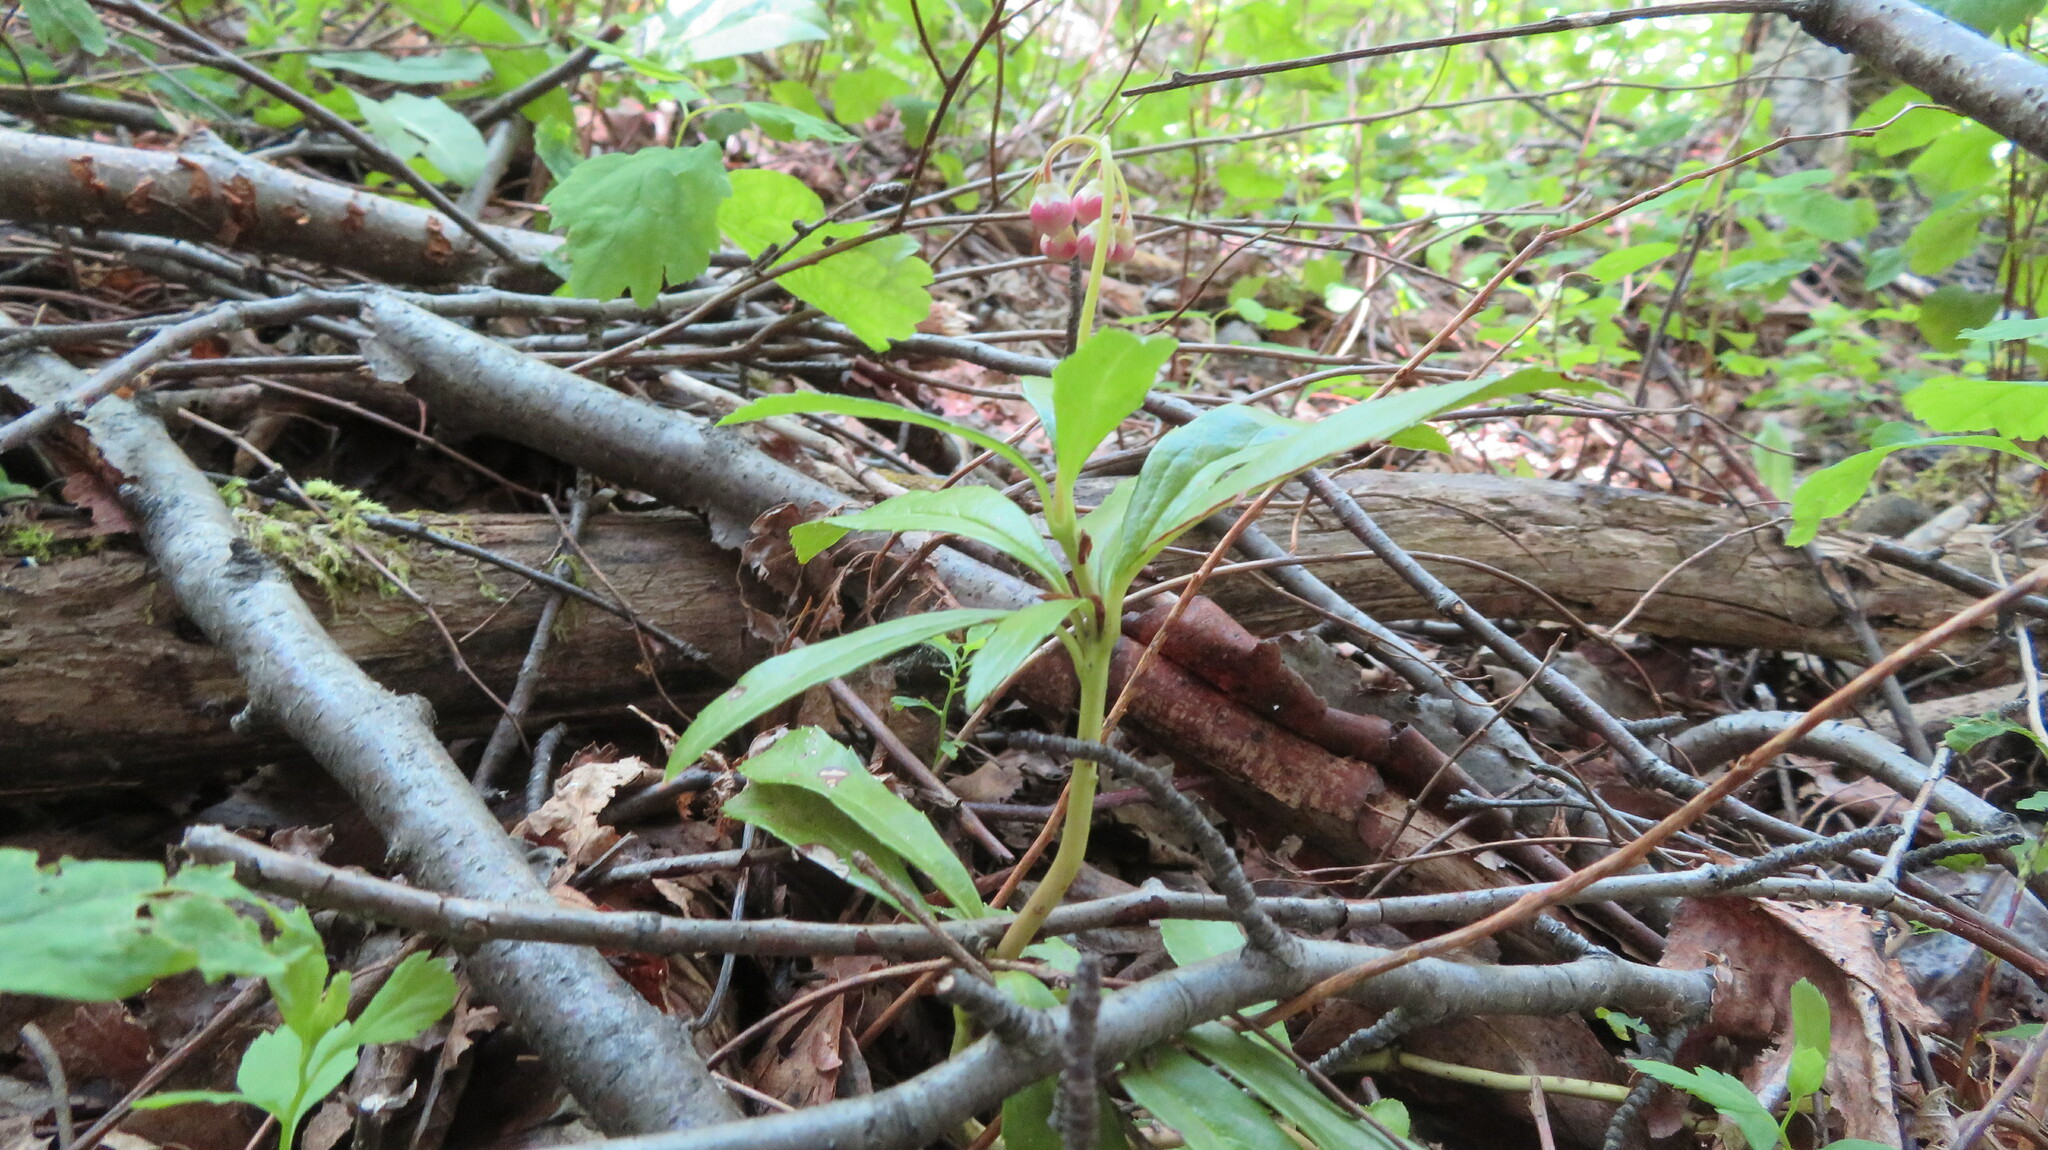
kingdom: Plantae
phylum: Tracheophyta
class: Magnoliopsida
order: Ericales
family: Ericaceae
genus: Chimaphila
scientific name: Chimaphila umbellata
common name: Pipsissewa
